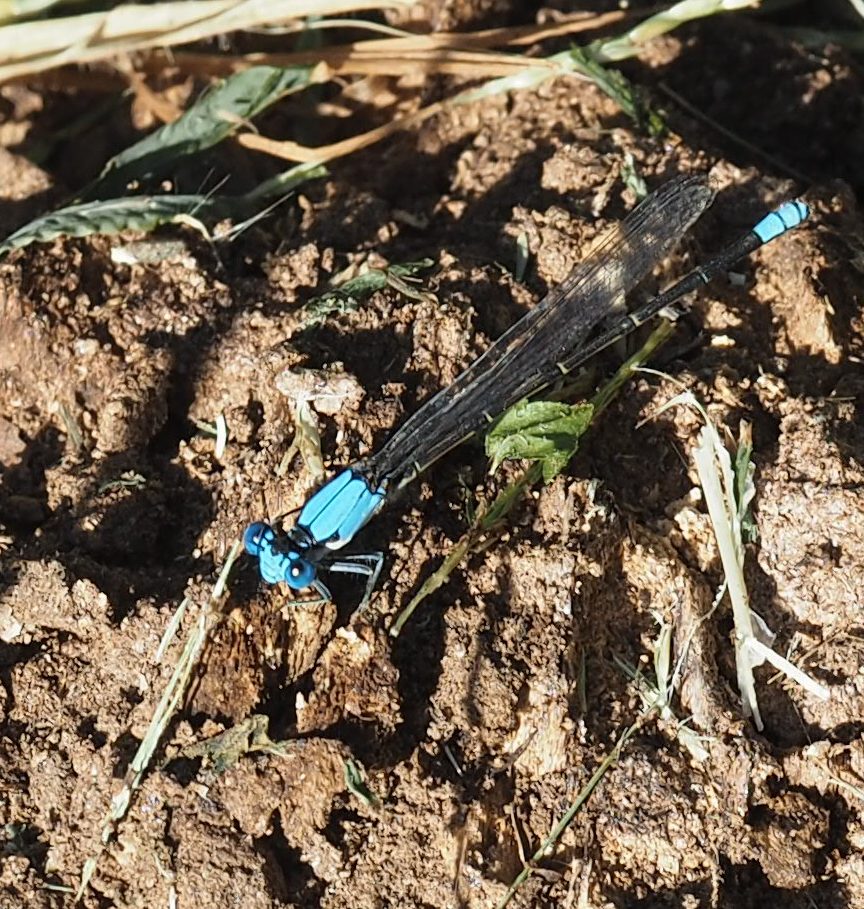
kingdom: Animalia
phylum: Arthropoda
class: Insecta
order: Odonata
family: Coenagrionidae
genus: Argia
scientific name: Argia apicalis
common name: Blue-fronted dancer
